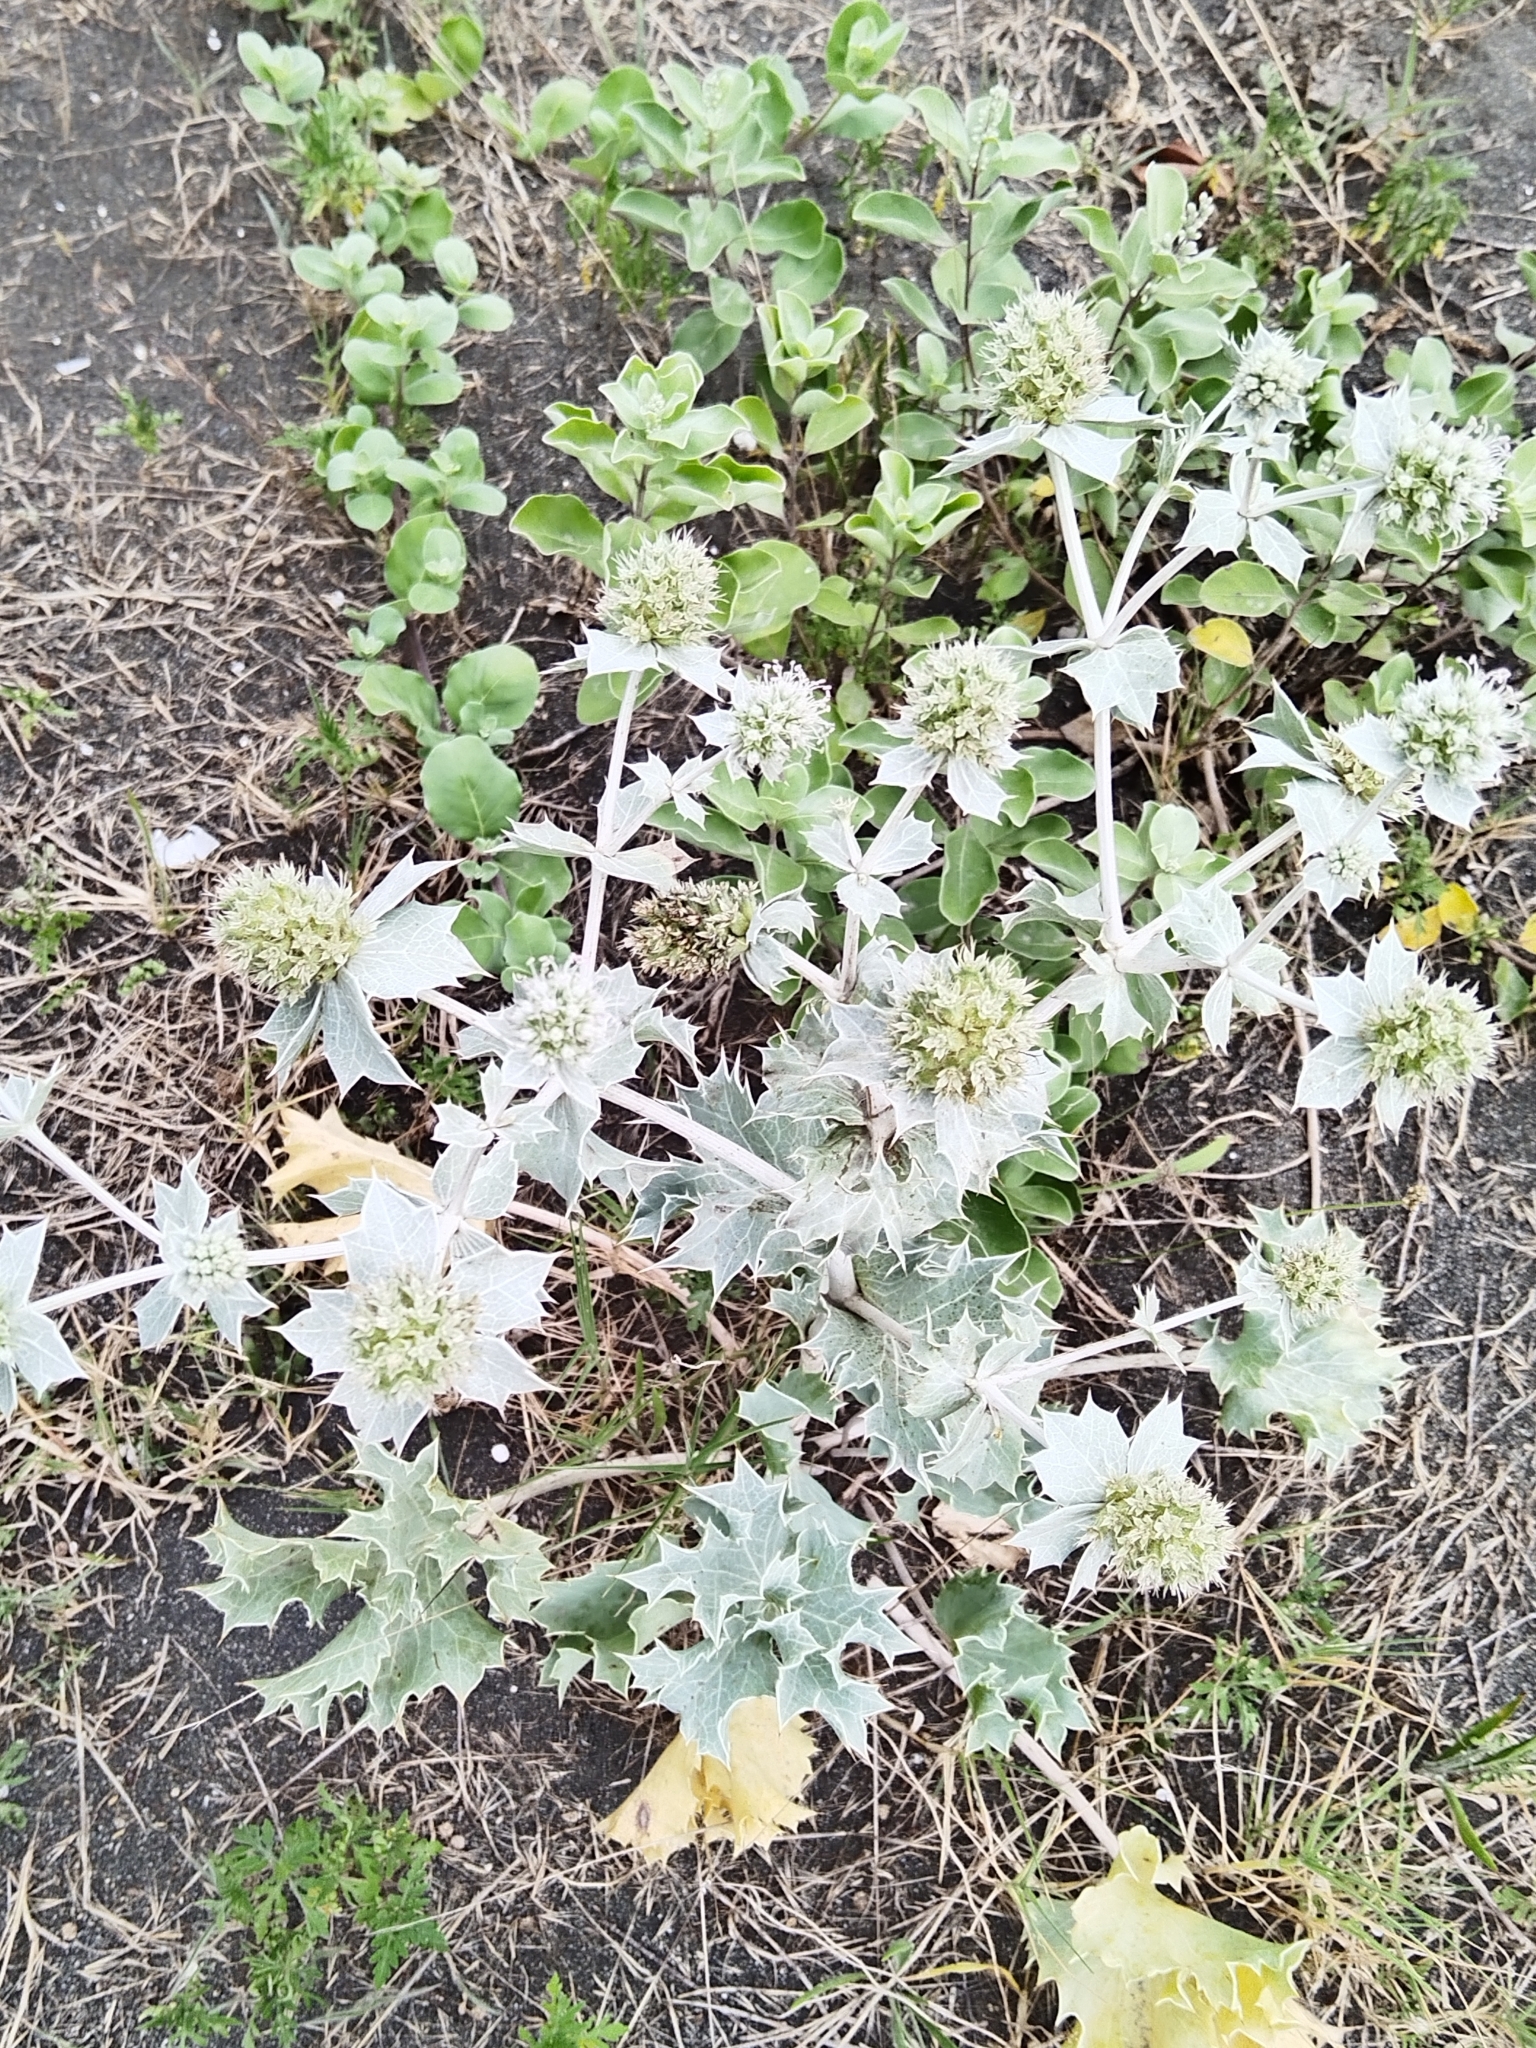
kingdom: Plantae
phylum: Tracheophyta
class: Magnoliopsida
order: Apiales
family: Apiaceae
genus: Eryngium
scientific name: Eryngium maritimum
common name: Sea-holly
